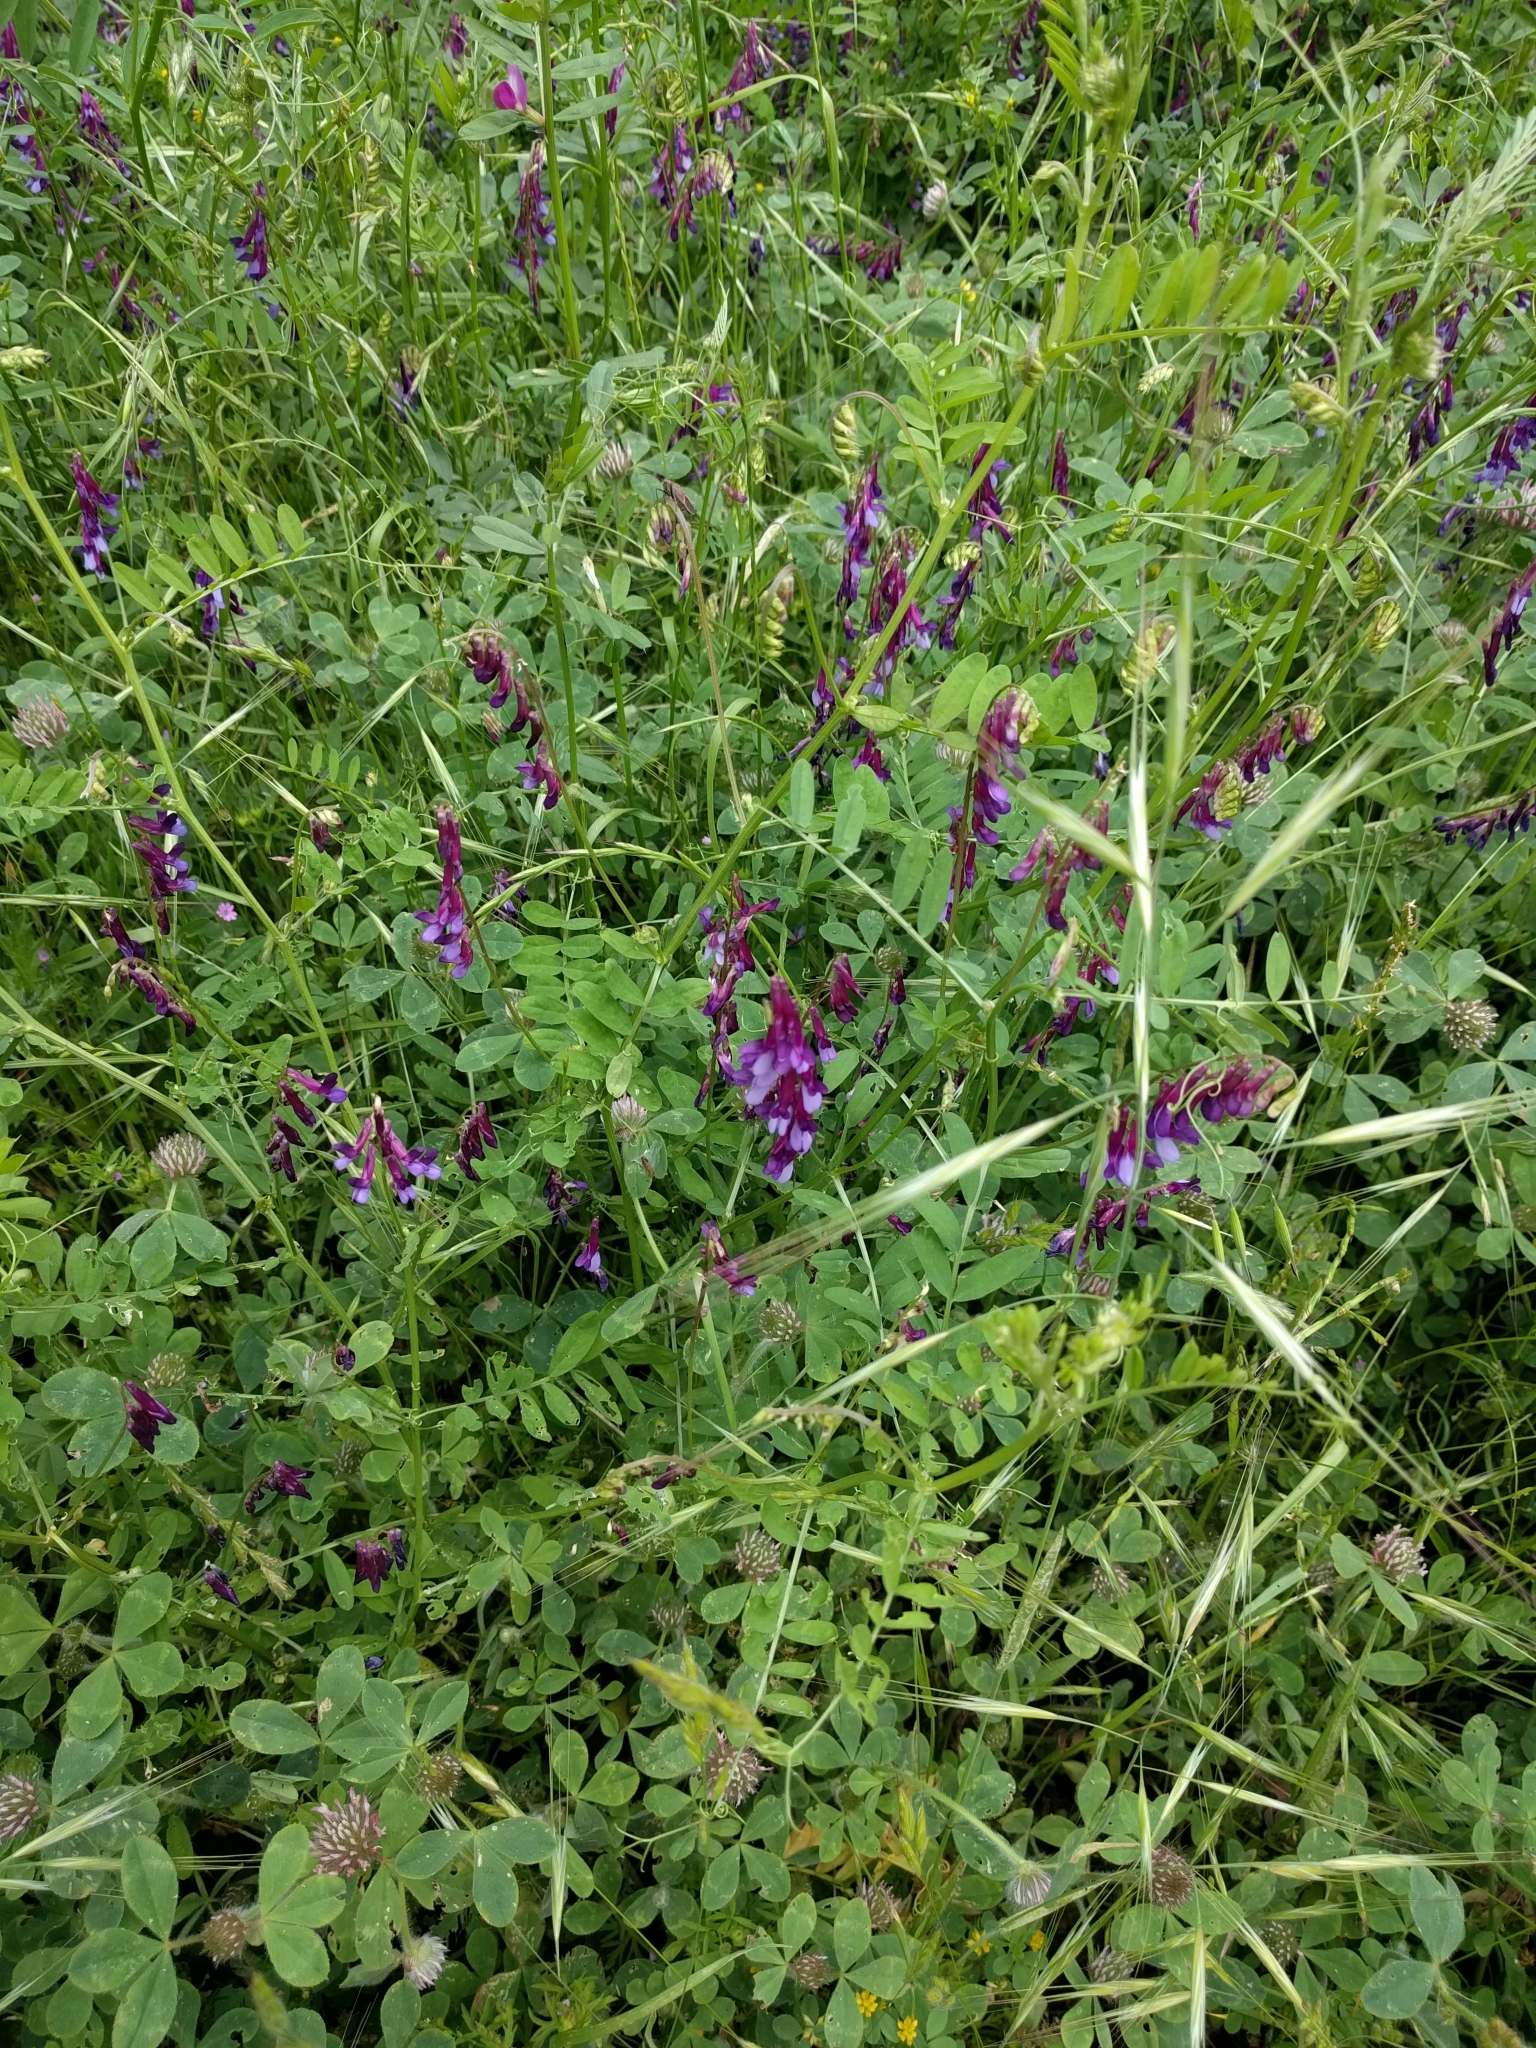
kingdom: Plantae
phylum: Tracheophyta
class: Magnoliopsida
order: Fabales
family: Fabaceae
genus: Vicia
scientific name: Vicia villosa
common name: Fodder vetch
